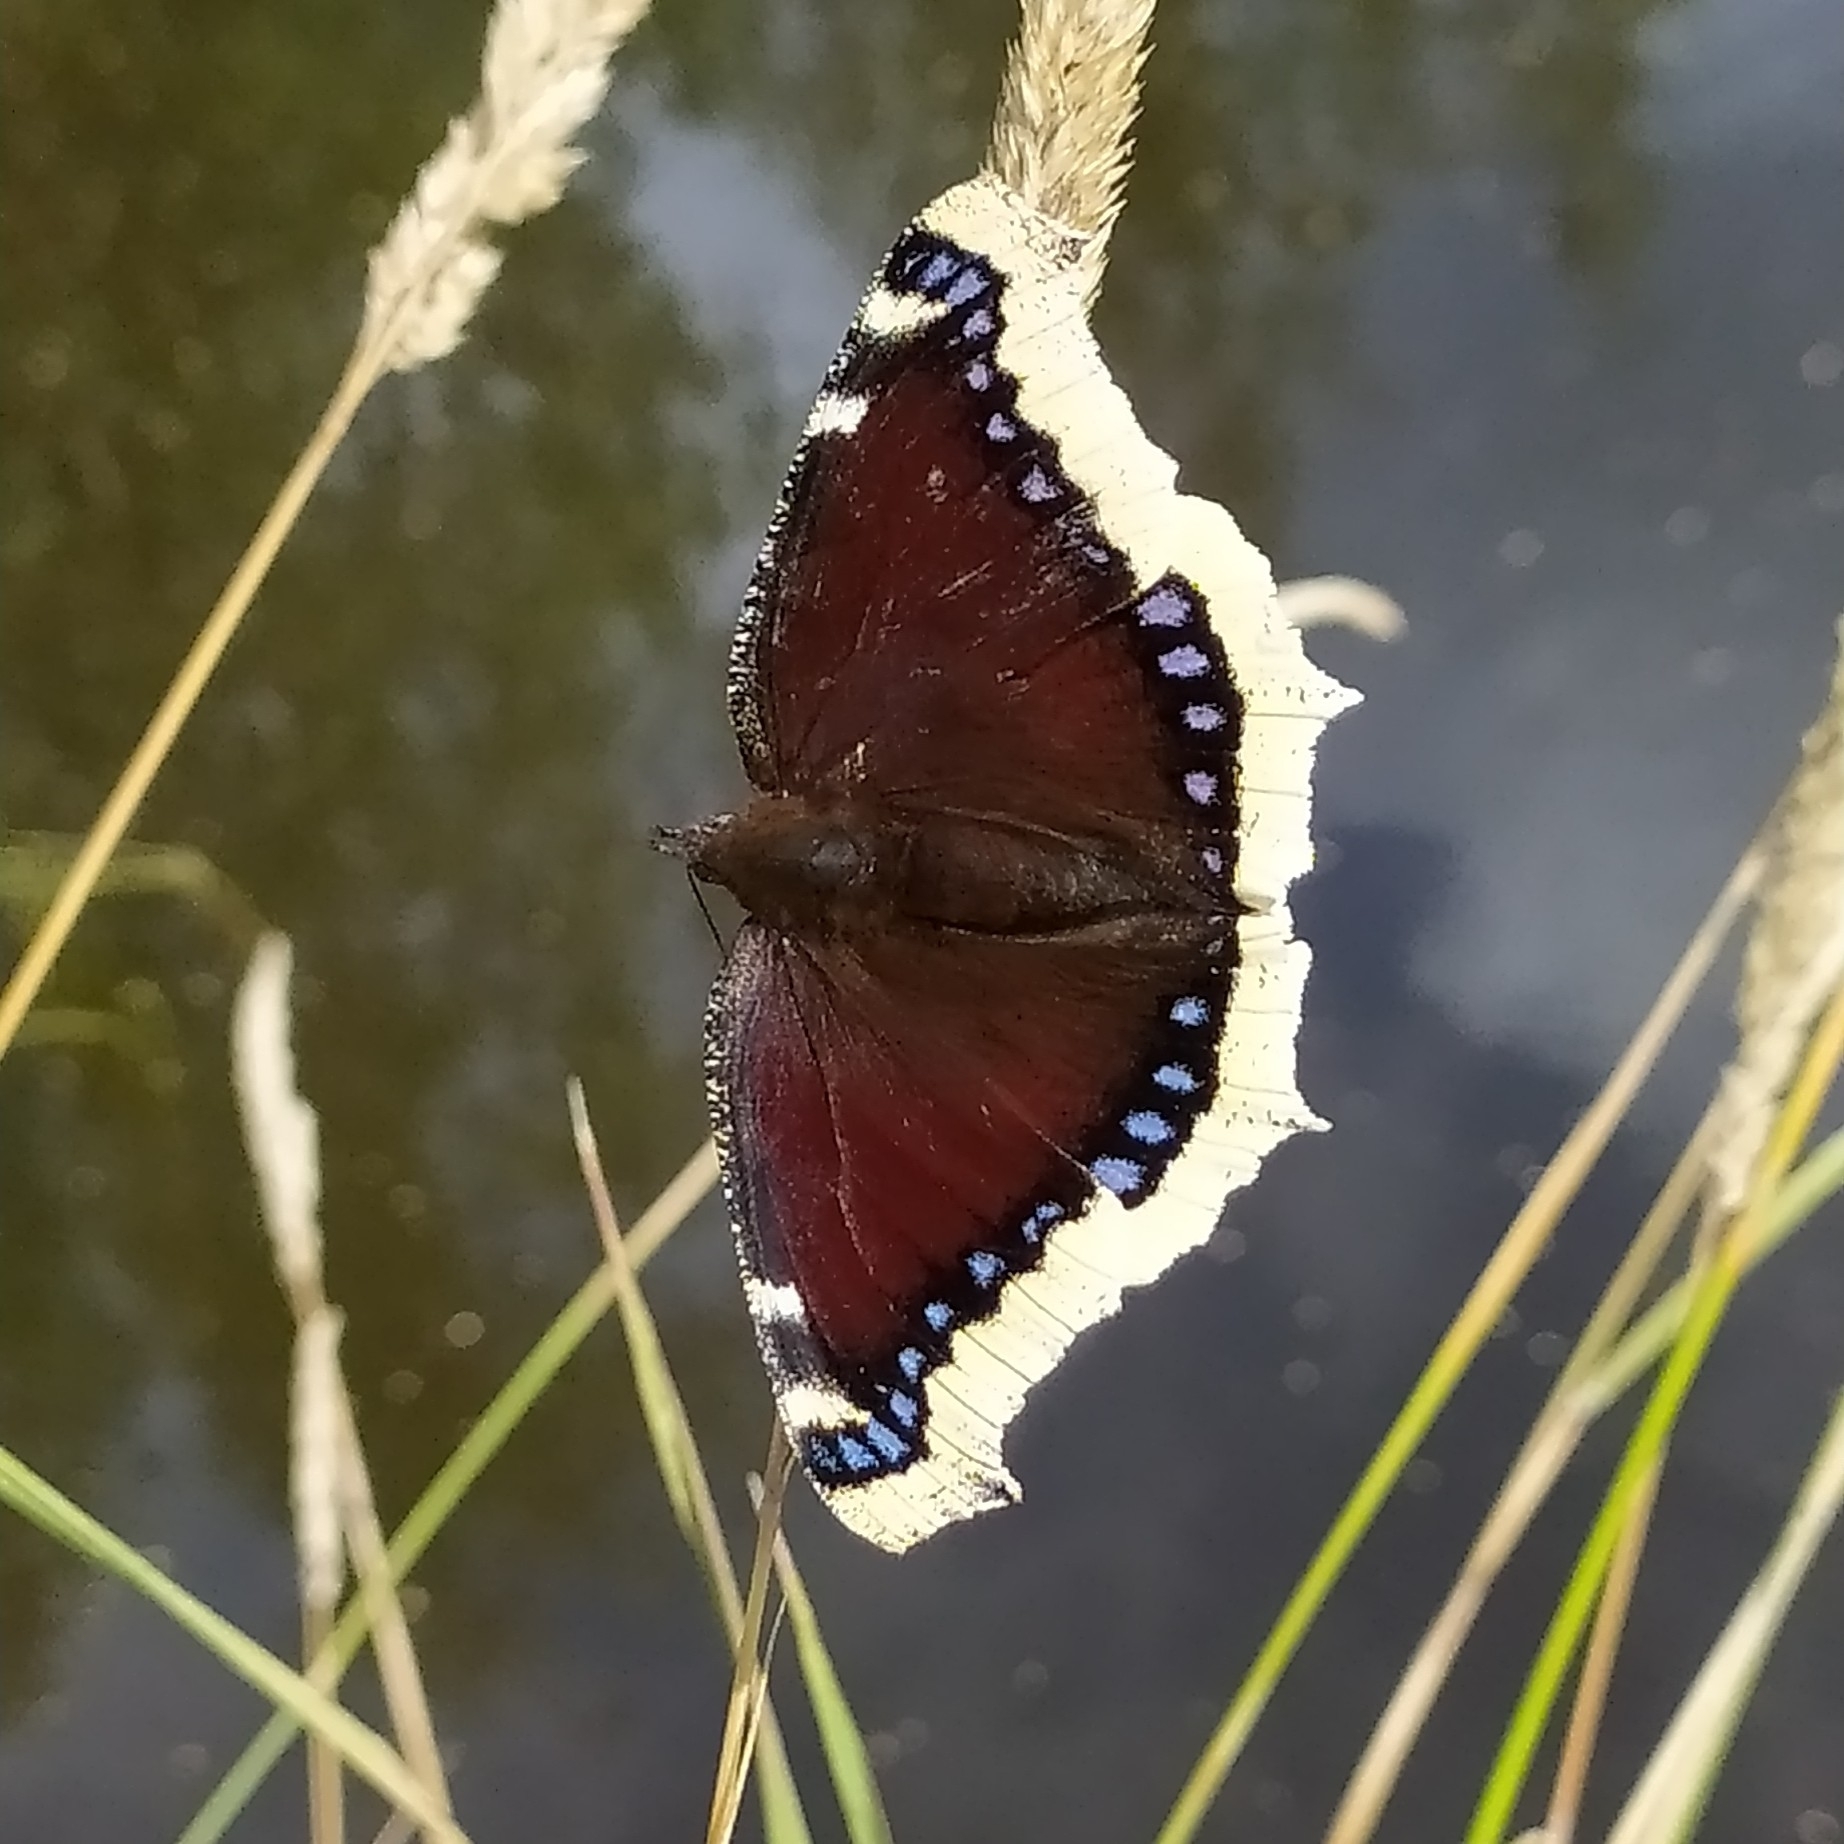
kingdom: Animalia
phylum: Arthropoda
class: Insecta
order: Lepidoptera
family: Nymphalidae
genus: Nymphalis
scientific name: Nymphalis antiopa
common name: Camberwell beauty
